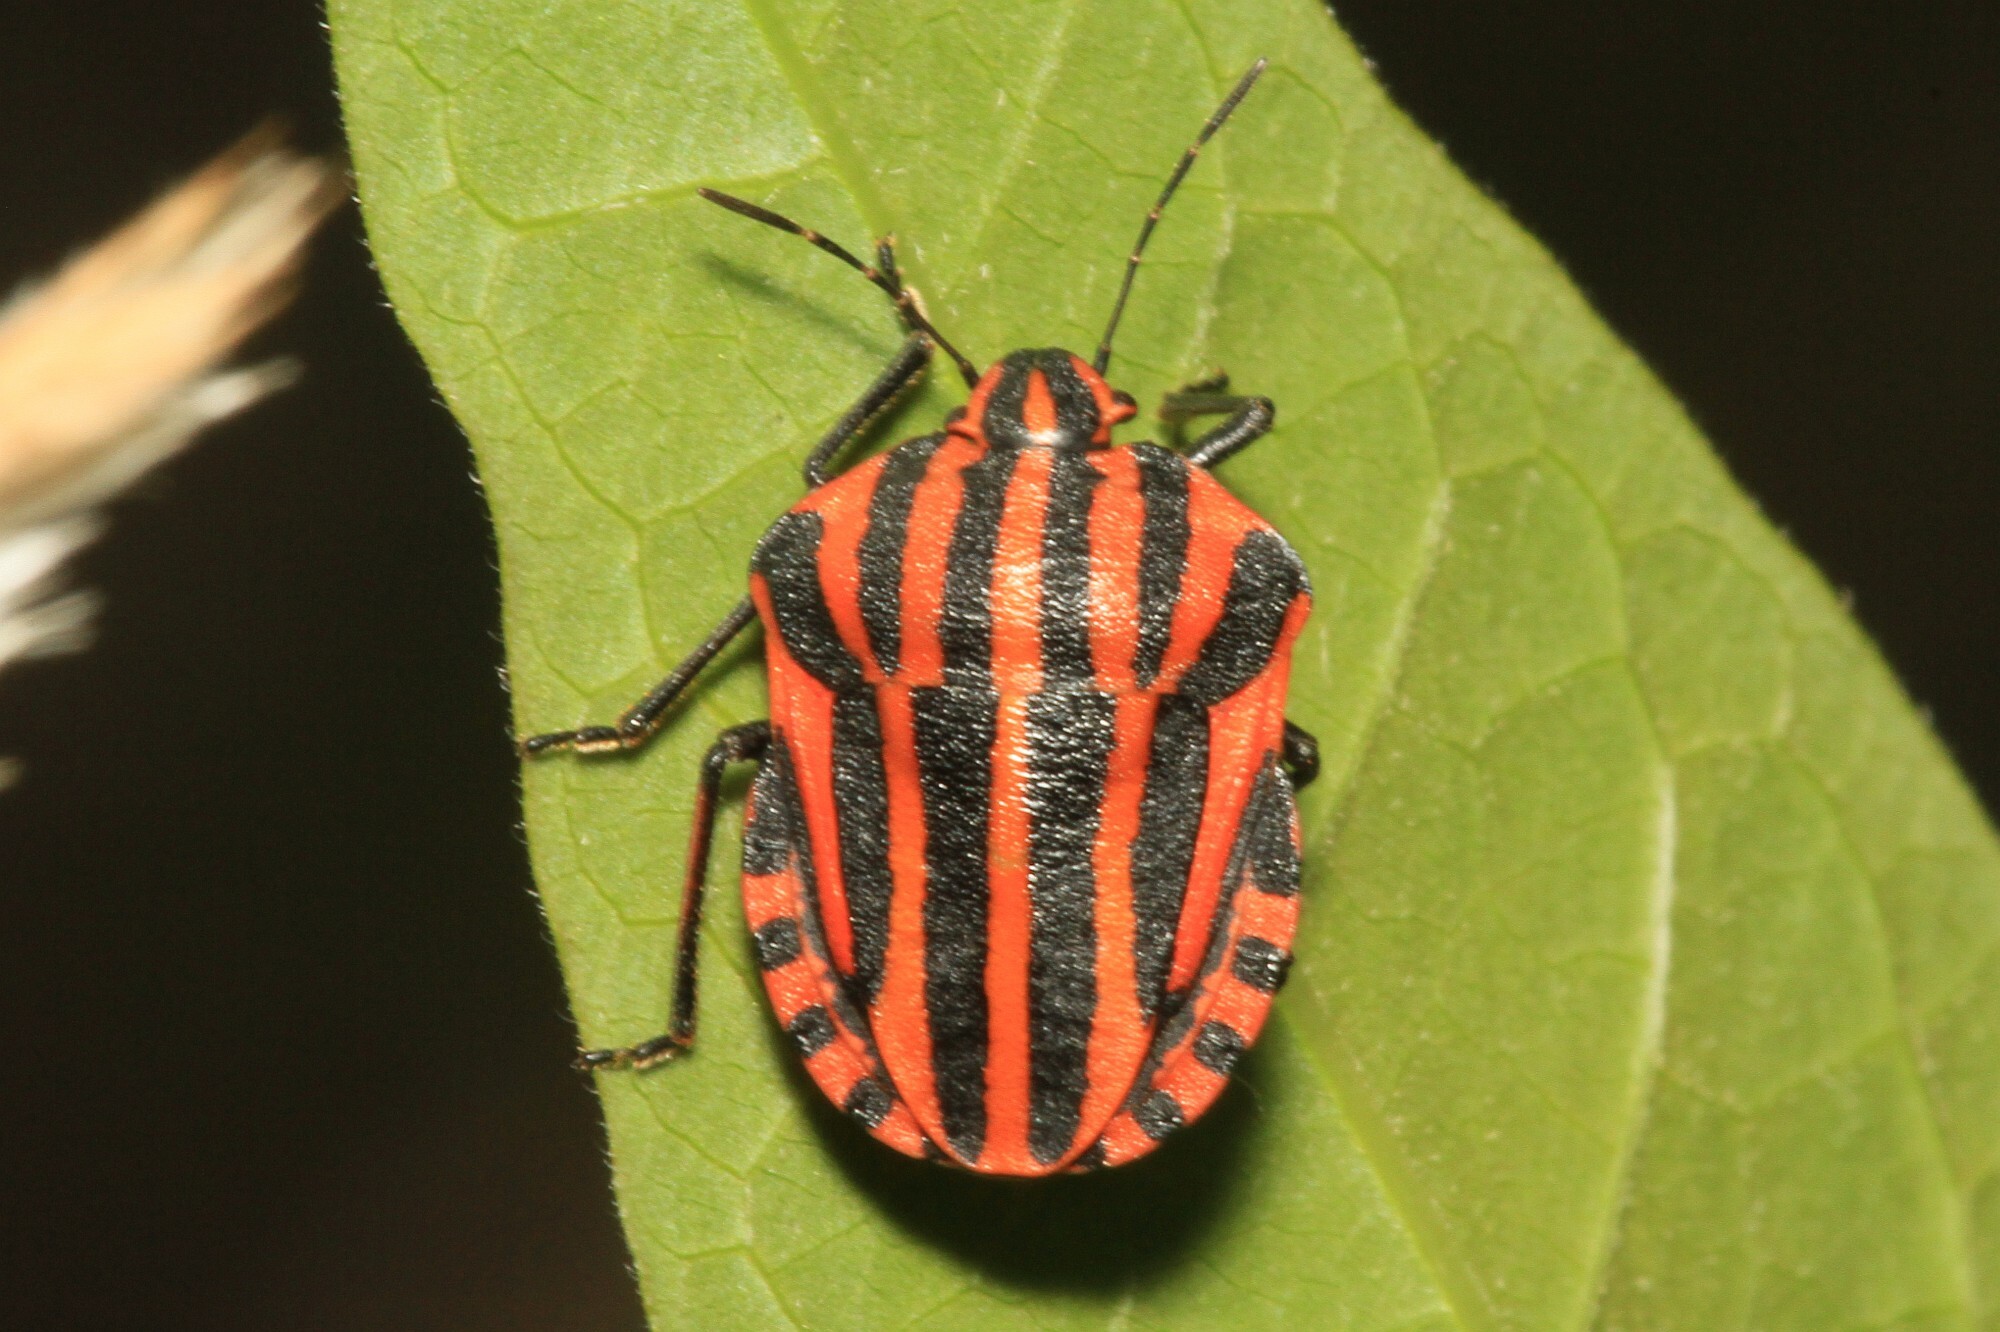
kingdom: Animalia
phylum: Arthropoda
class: Insecta
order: Hemiptera
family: Pentatomidae
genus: Graphosoma
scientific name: Graphosoma italicum
